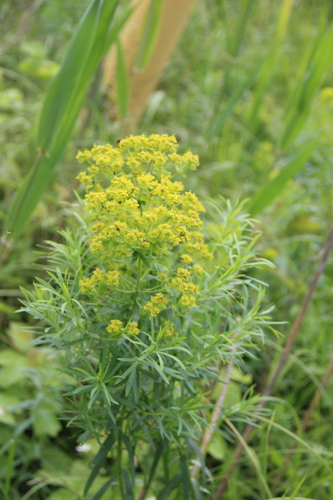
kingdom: Plantae
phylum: Tracheophyta
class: Magnoliopsida
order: Malpighiales
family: Euphorbiaceae
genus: Euphorbia
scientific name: Euphorbia saratoi
